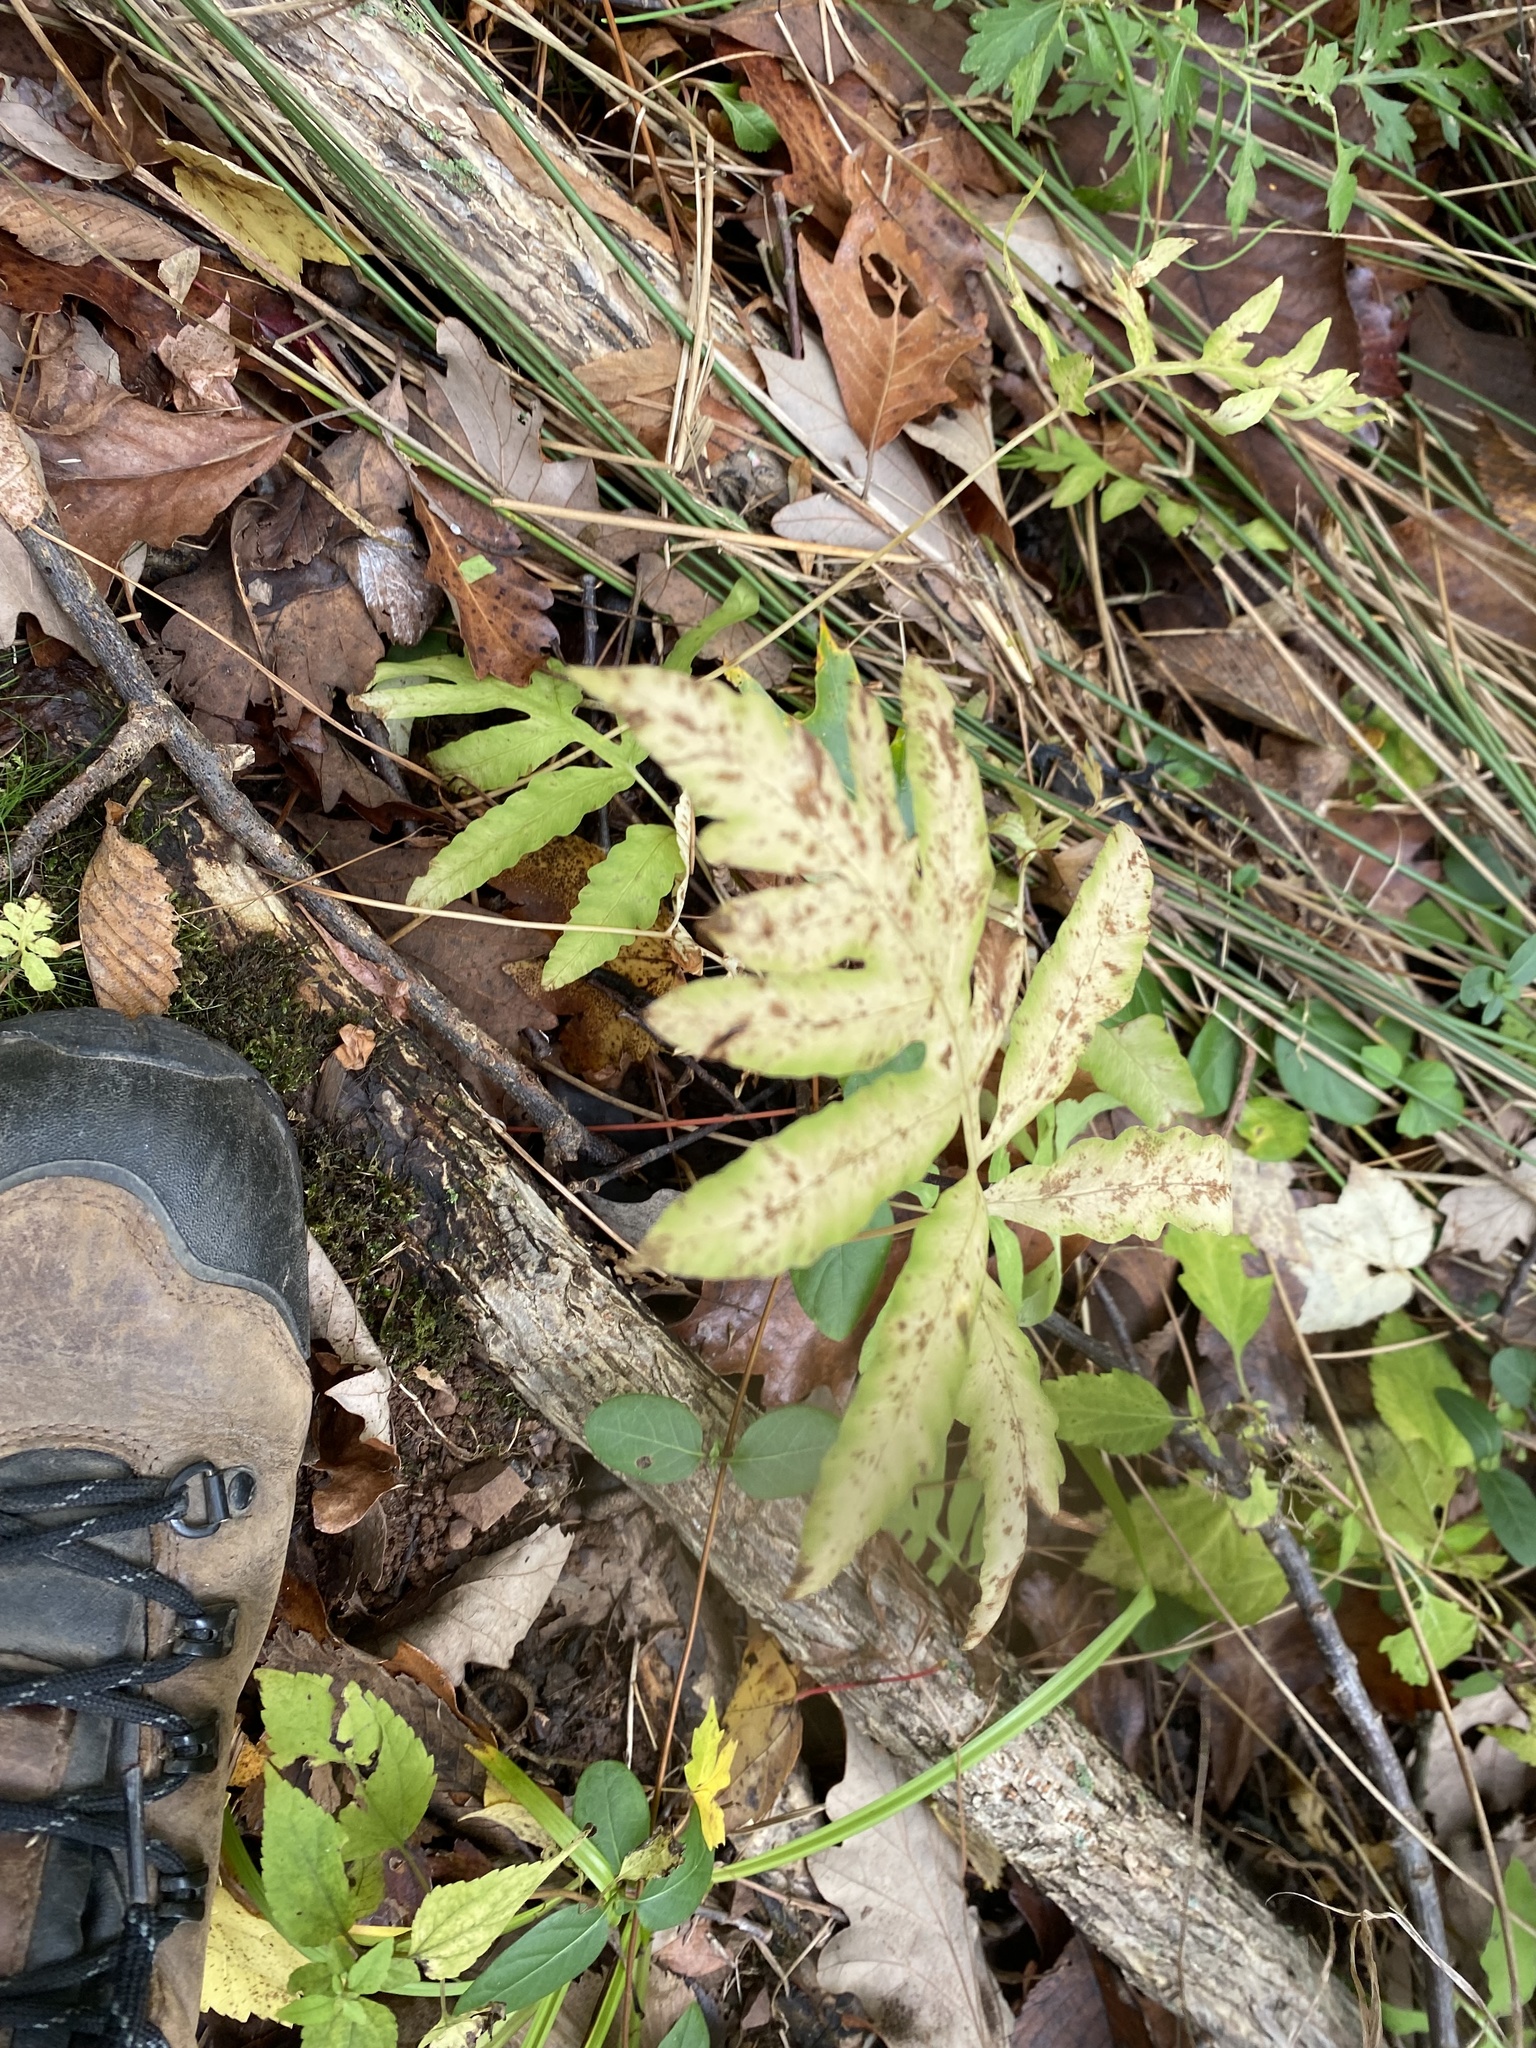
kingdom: Plantae
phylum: Tracheophyta
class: Polypodiopsida
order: Polypodiales
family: Onocleaceae
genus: Onoclea
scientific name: Onoclea sensibilis
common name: Sensitive fern
